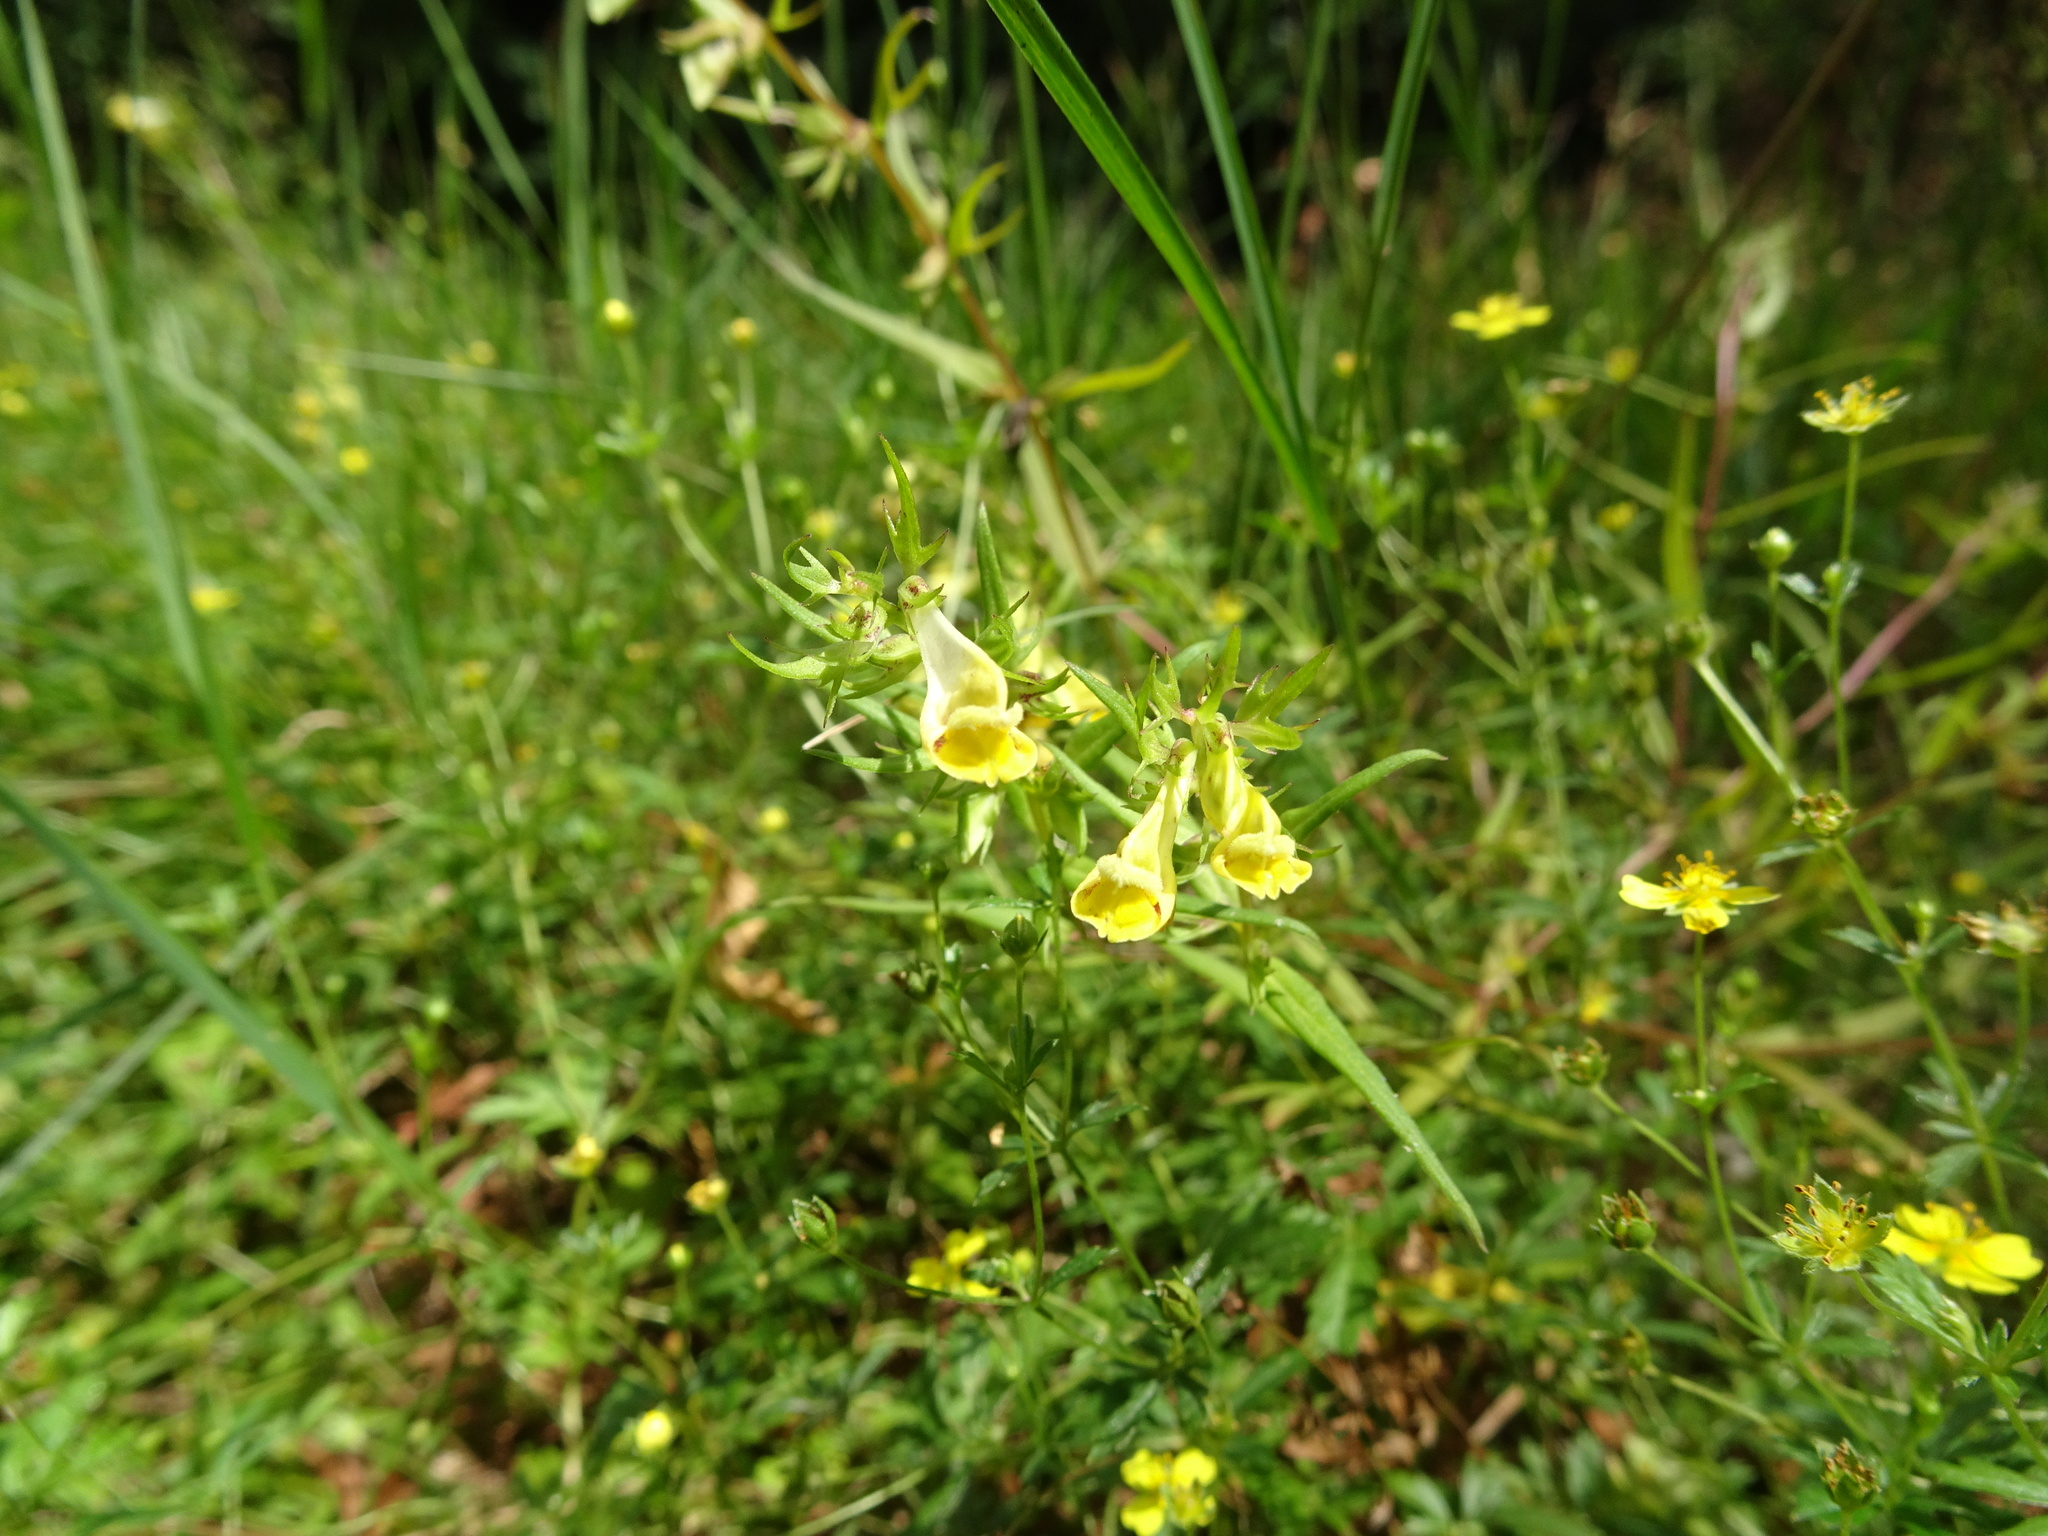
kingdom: Plantae
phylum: Tracheophyta
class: Magnoliopsida
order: Lamiales
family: Orobanchaceae
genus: Melampyrum
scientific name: Melampyrum pratense
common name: Common cow-wheat
